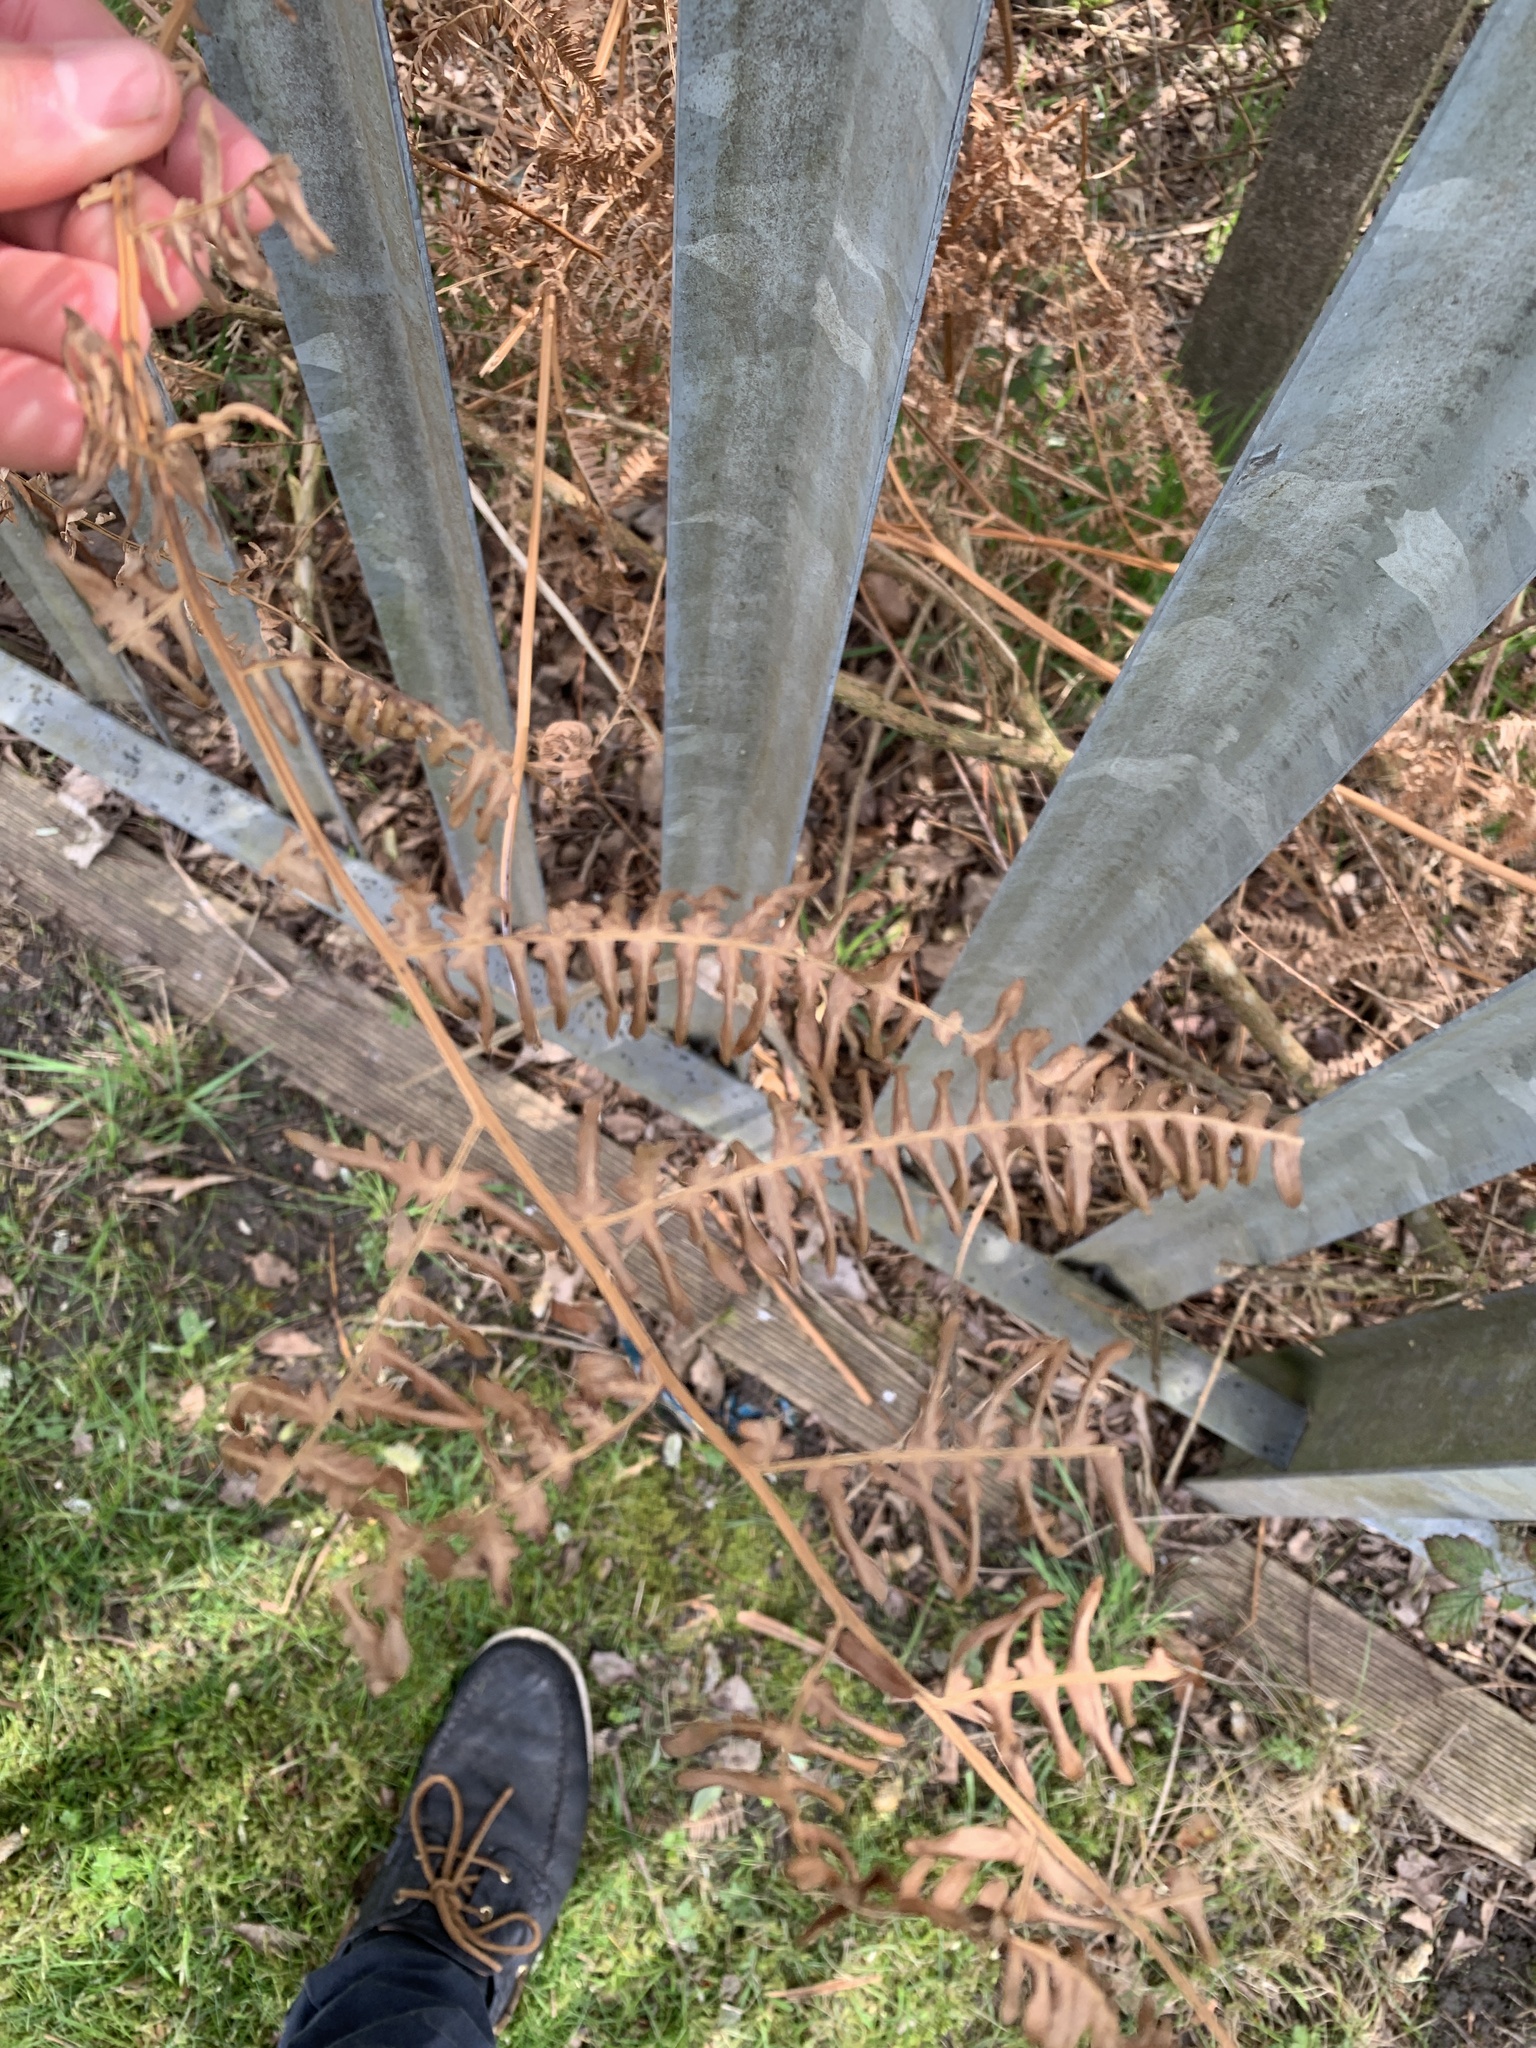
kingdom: Plantae
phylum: Tracheophyta
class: Polypodiopsida
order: Polypodiales
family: Dennstaedtiaceae
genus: Pteridium
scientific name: Pteridium aquilinum
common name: Bracken
